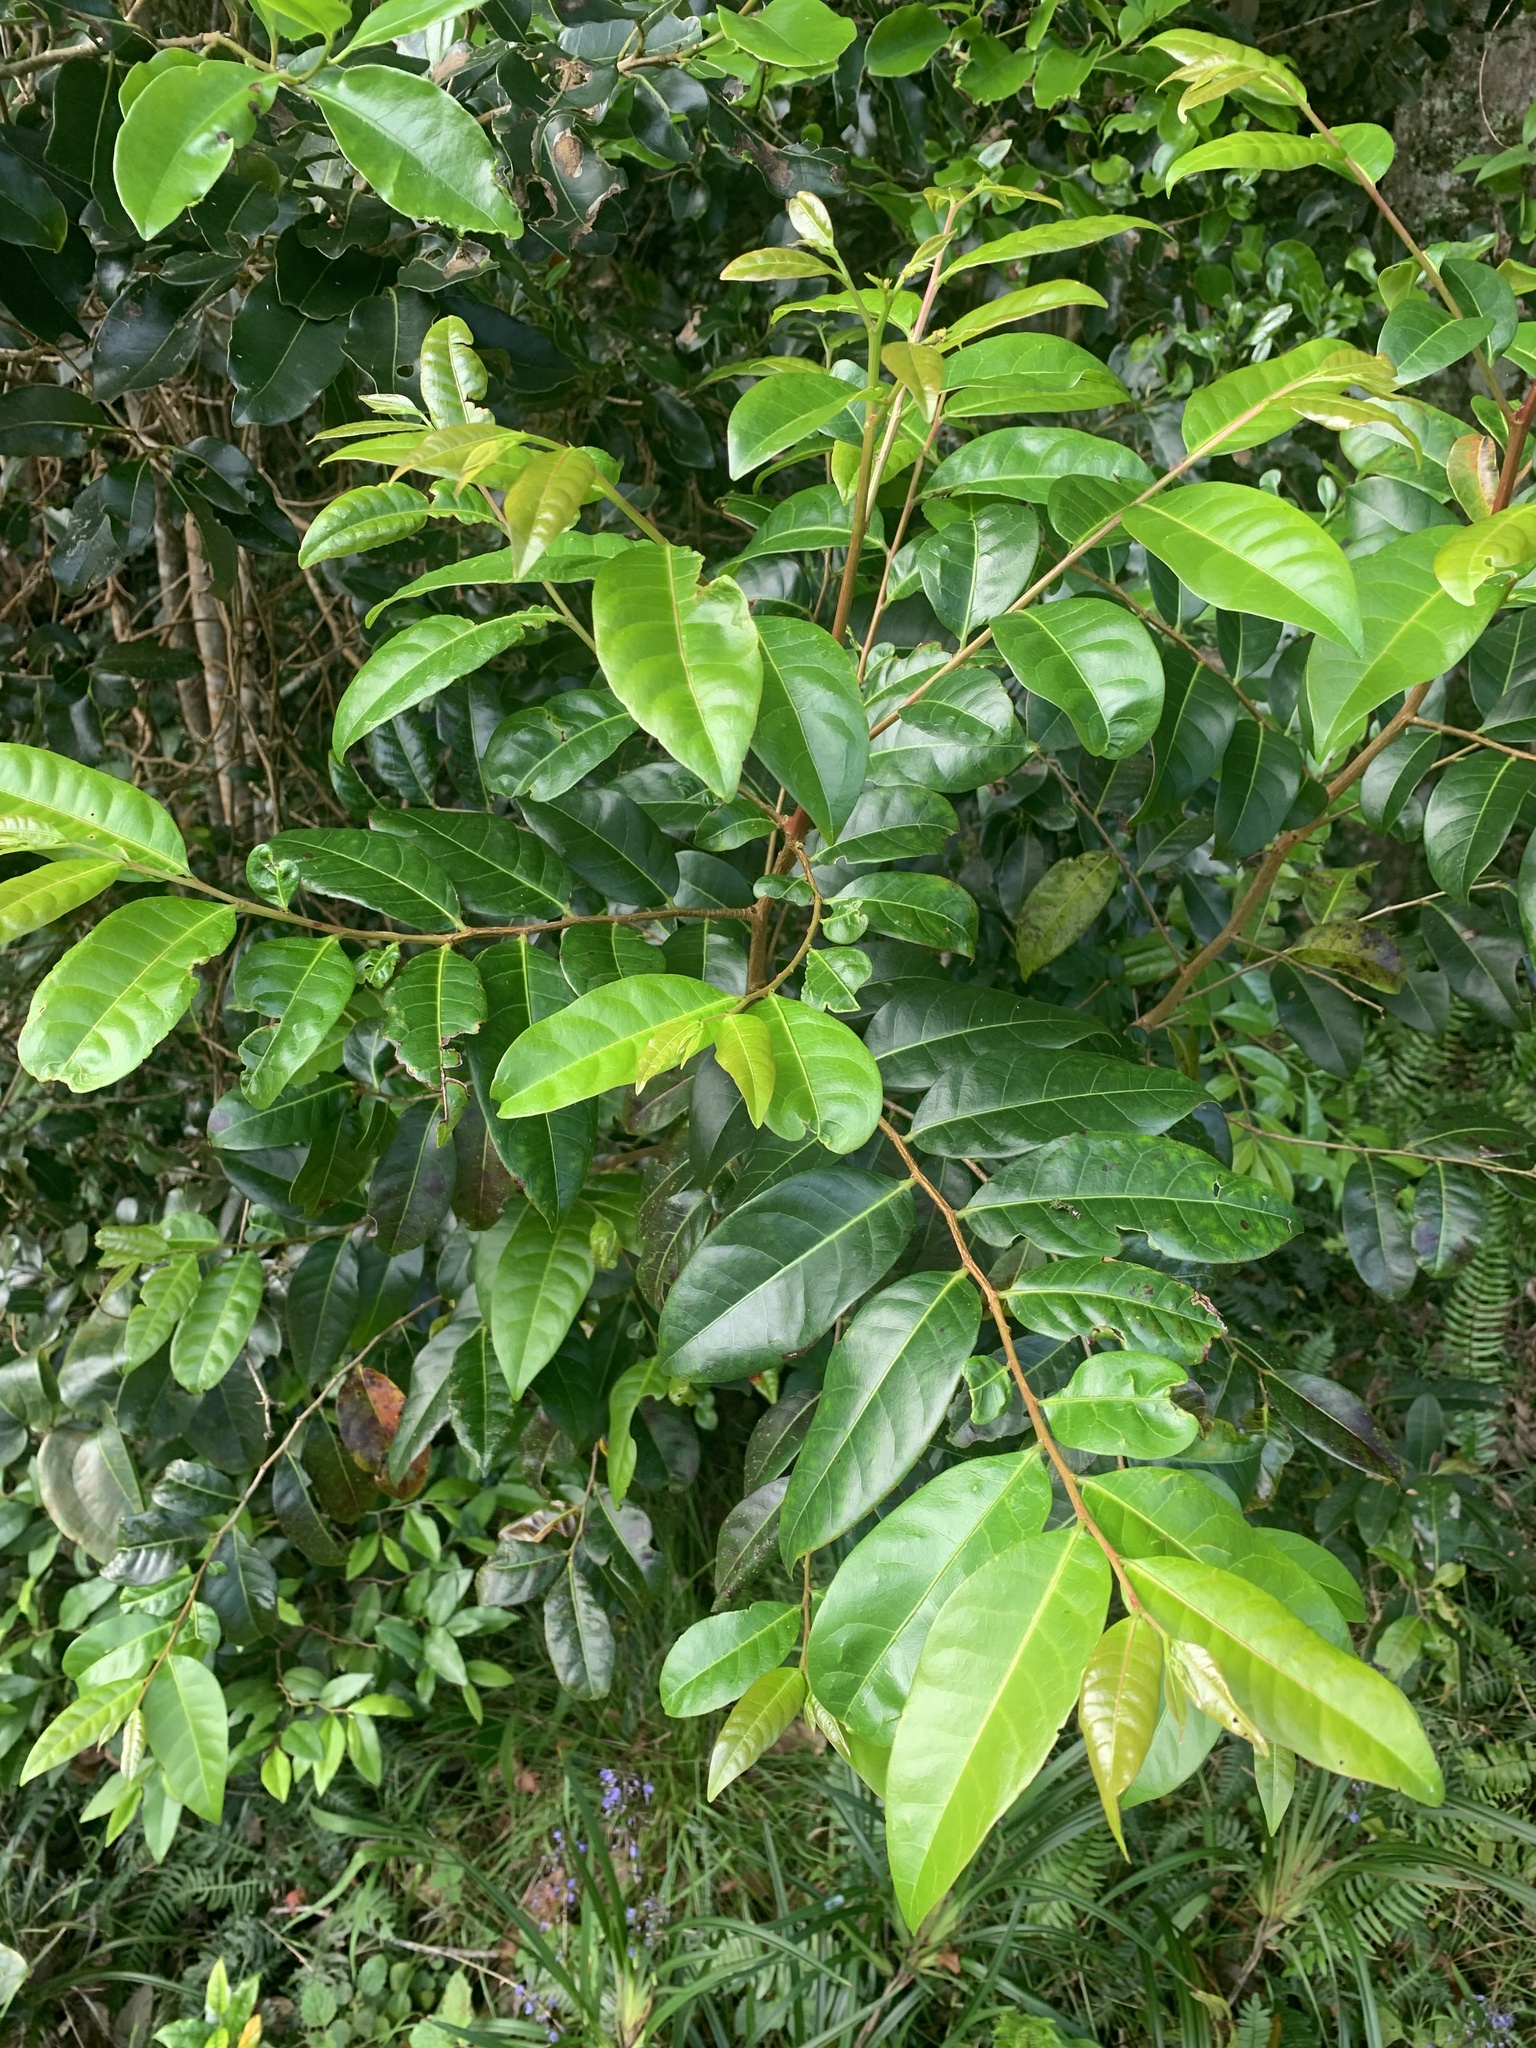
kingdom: Plantae
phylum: Tracheophyta
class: Magnoliopsida
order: Malpighiales
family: Phyllanthaceae
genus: Glochidion
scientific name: Glochidion ferdinandi
